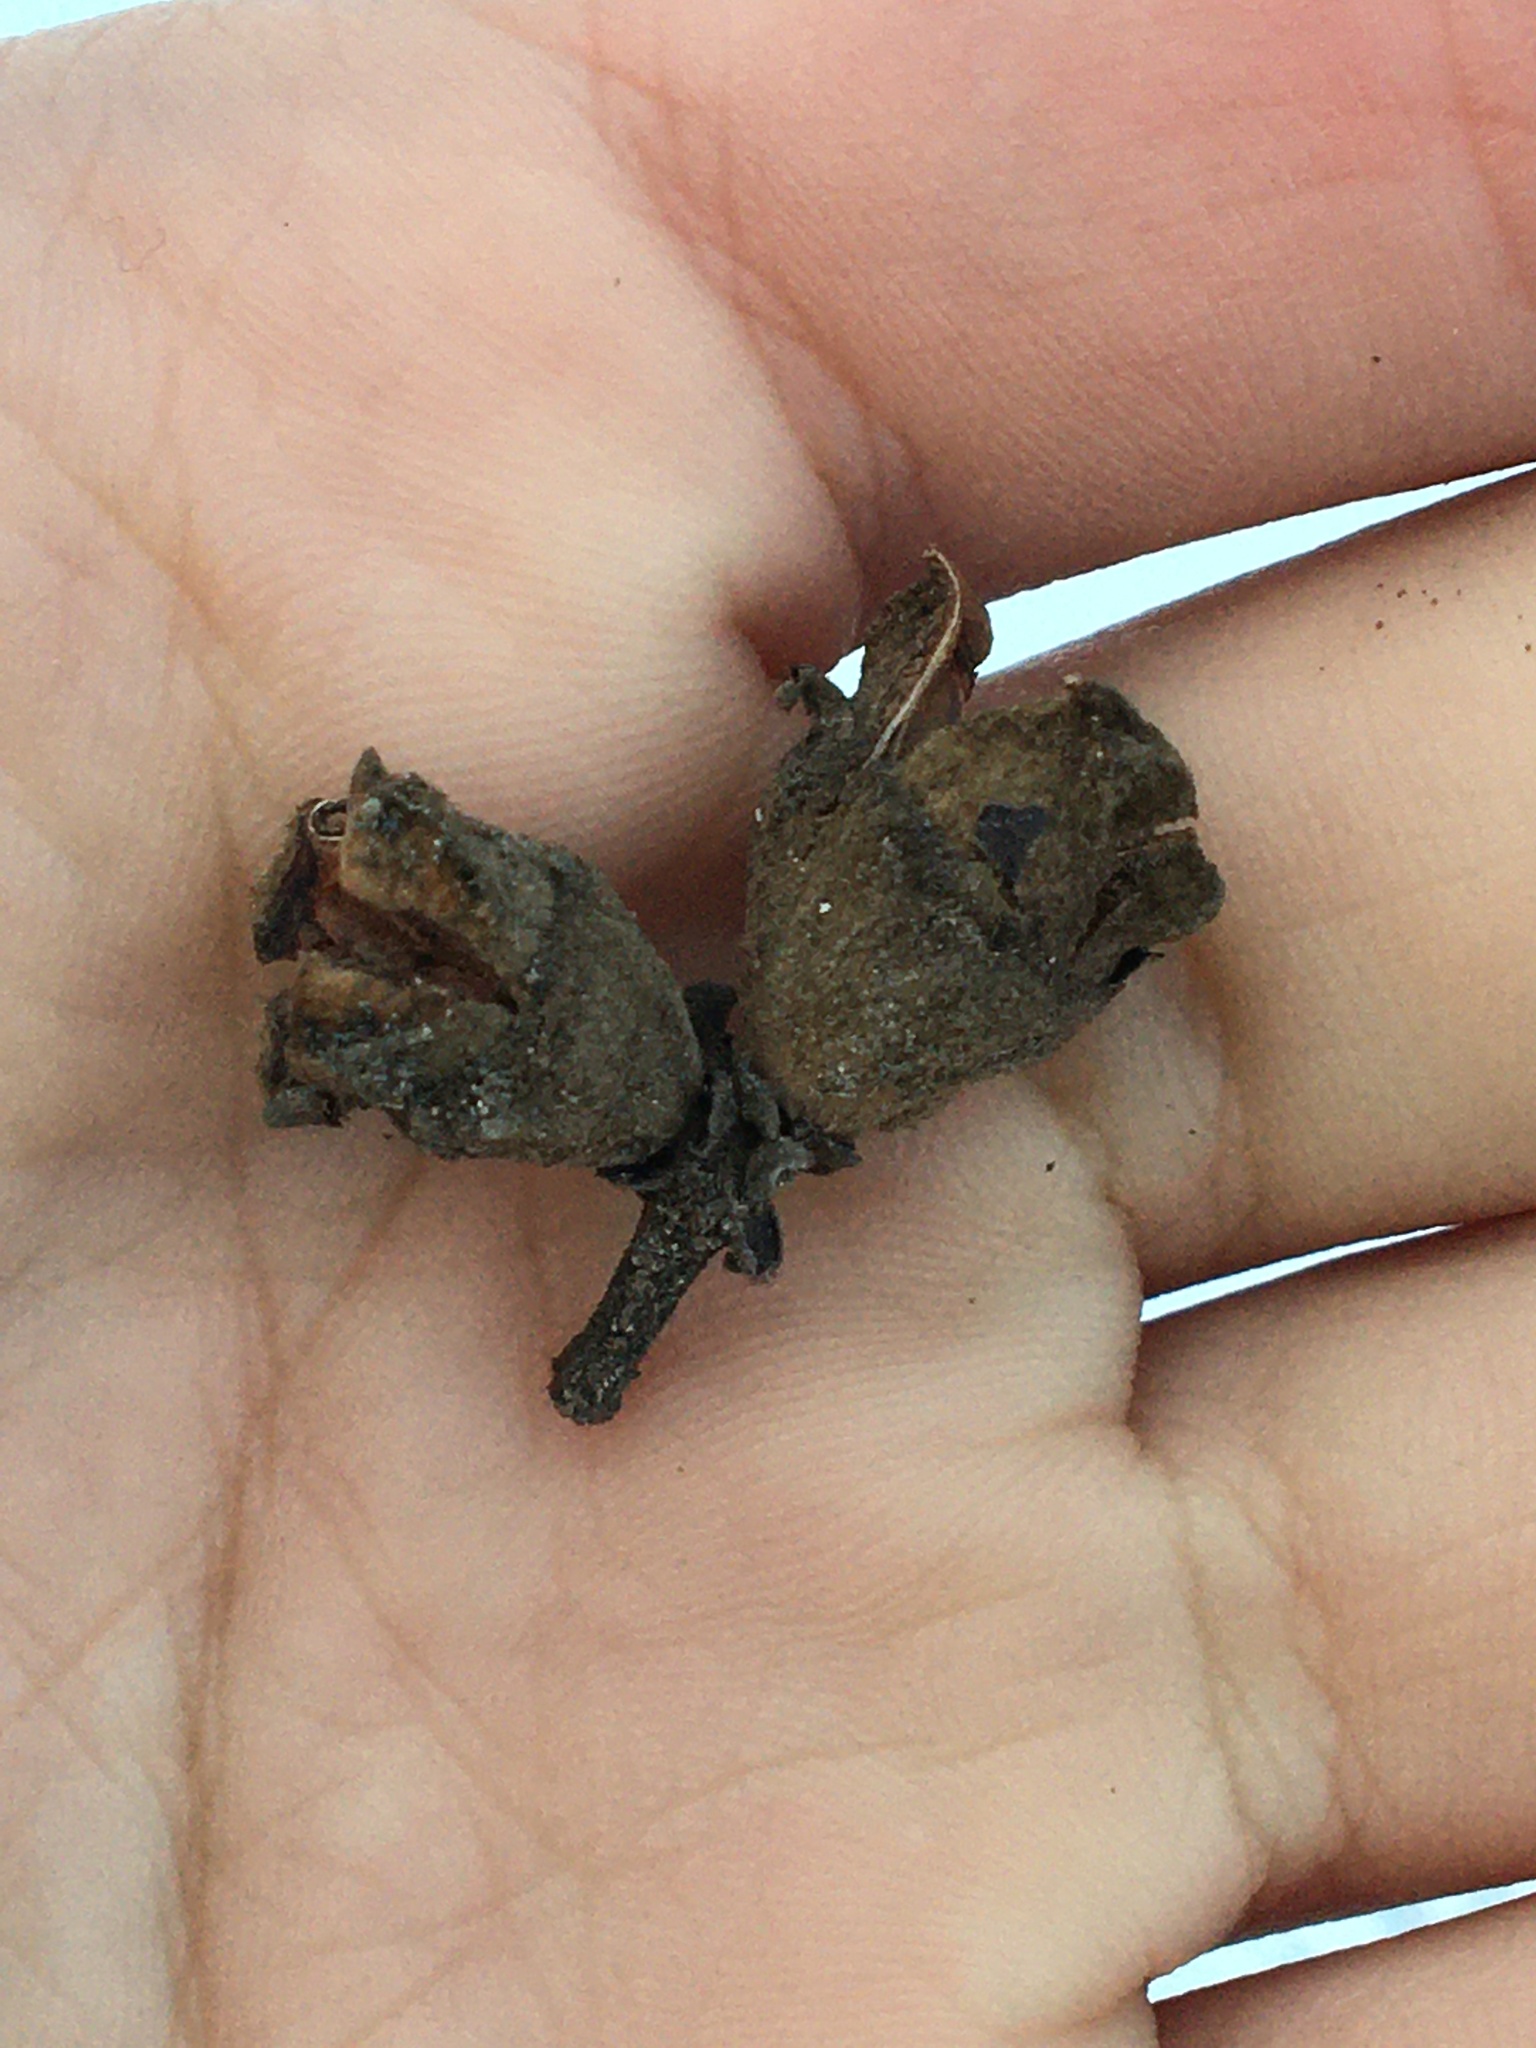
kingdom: Plantae
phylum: Tracheophyta
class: Magnoliopsida
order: Saxifragales
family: Hamamelidaceae
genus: Hamamelis
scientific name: Hamamelis virginiana
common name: Witch-hazel
